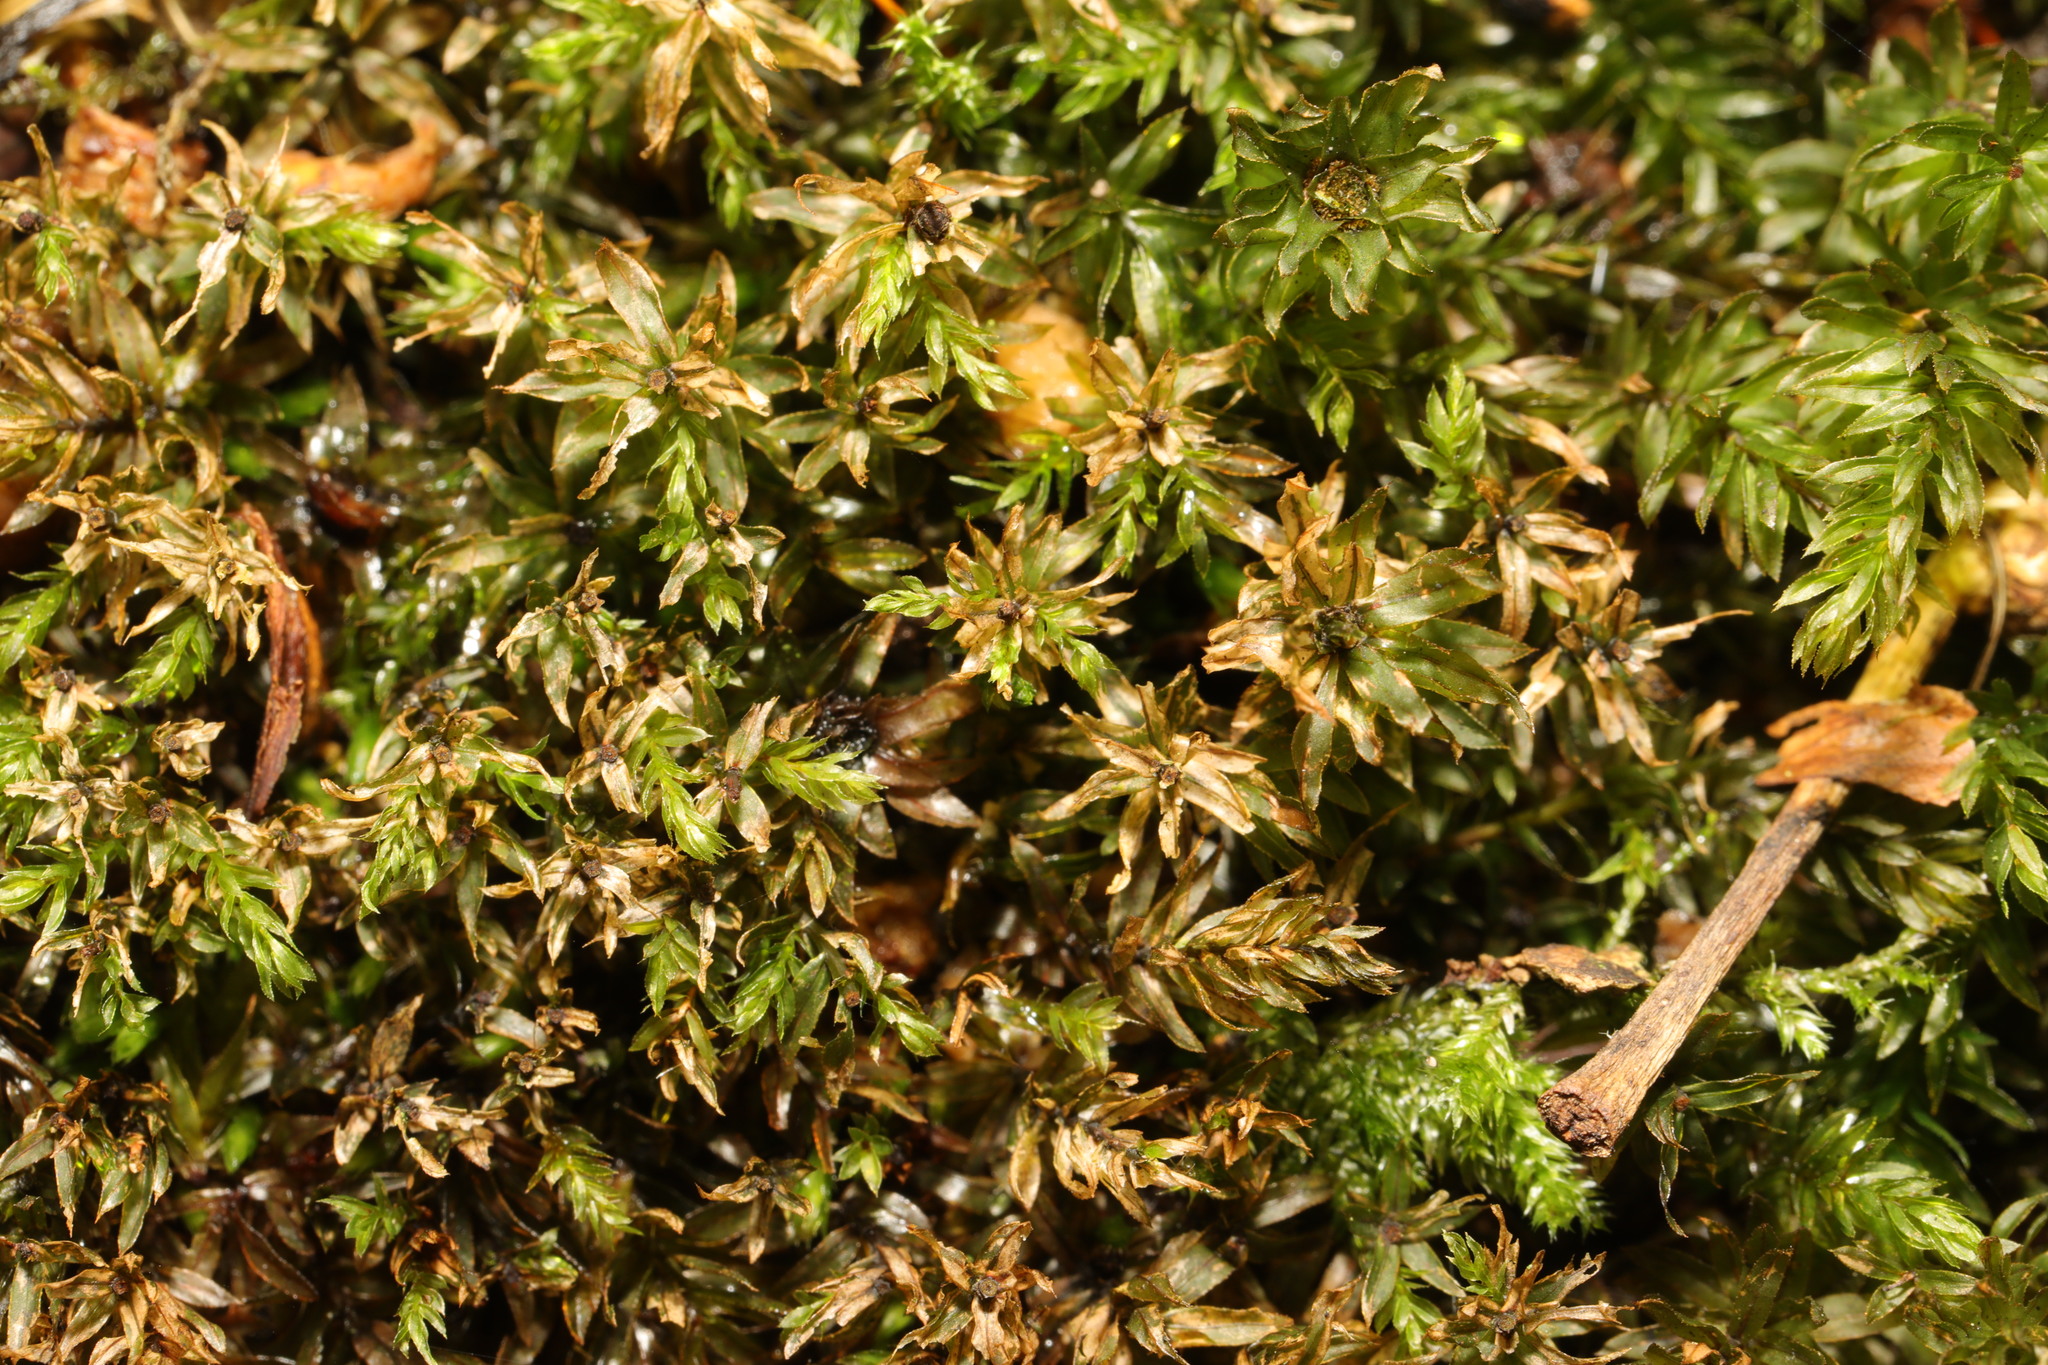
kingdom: Plantae
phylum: Bryophyta
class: Bryopsida
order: Bryales
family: Mniaceae
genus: Mnium
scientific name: Mnium hornum
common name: Swan's-neck leafy moss
